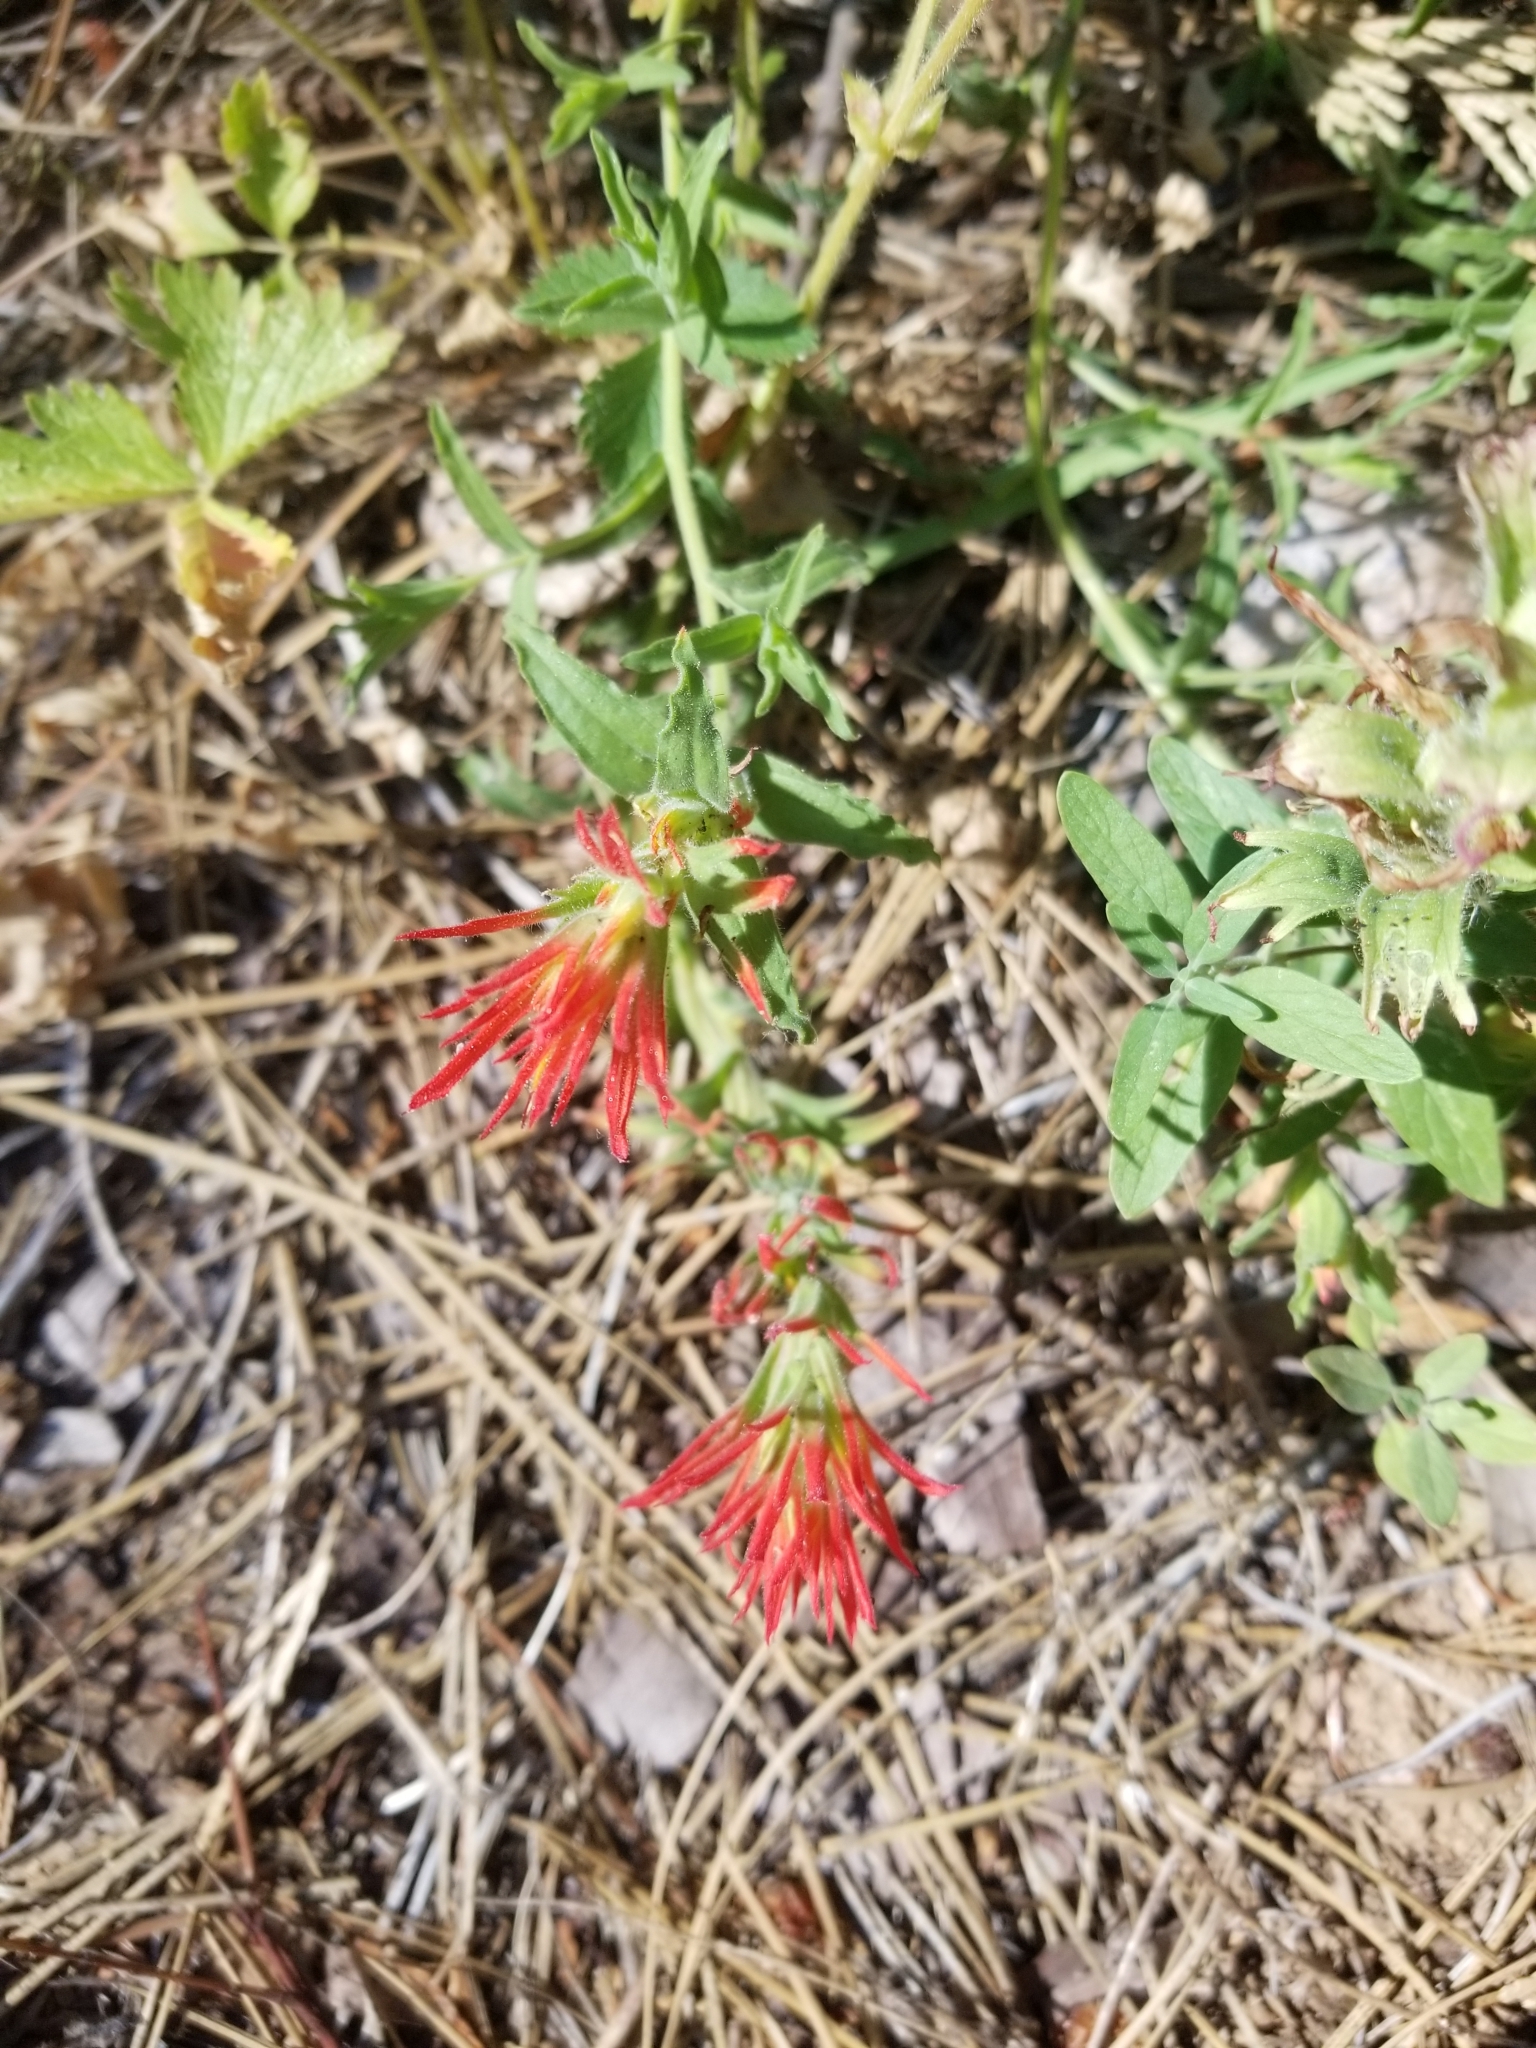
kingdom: Plantae
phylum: Tracheophyta
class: Magnoliopsida
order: Lamiales
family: Orobanchaceae
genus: Castilleja
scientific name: Castilleja applegatei
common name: Wavy-leaf paintbrush
